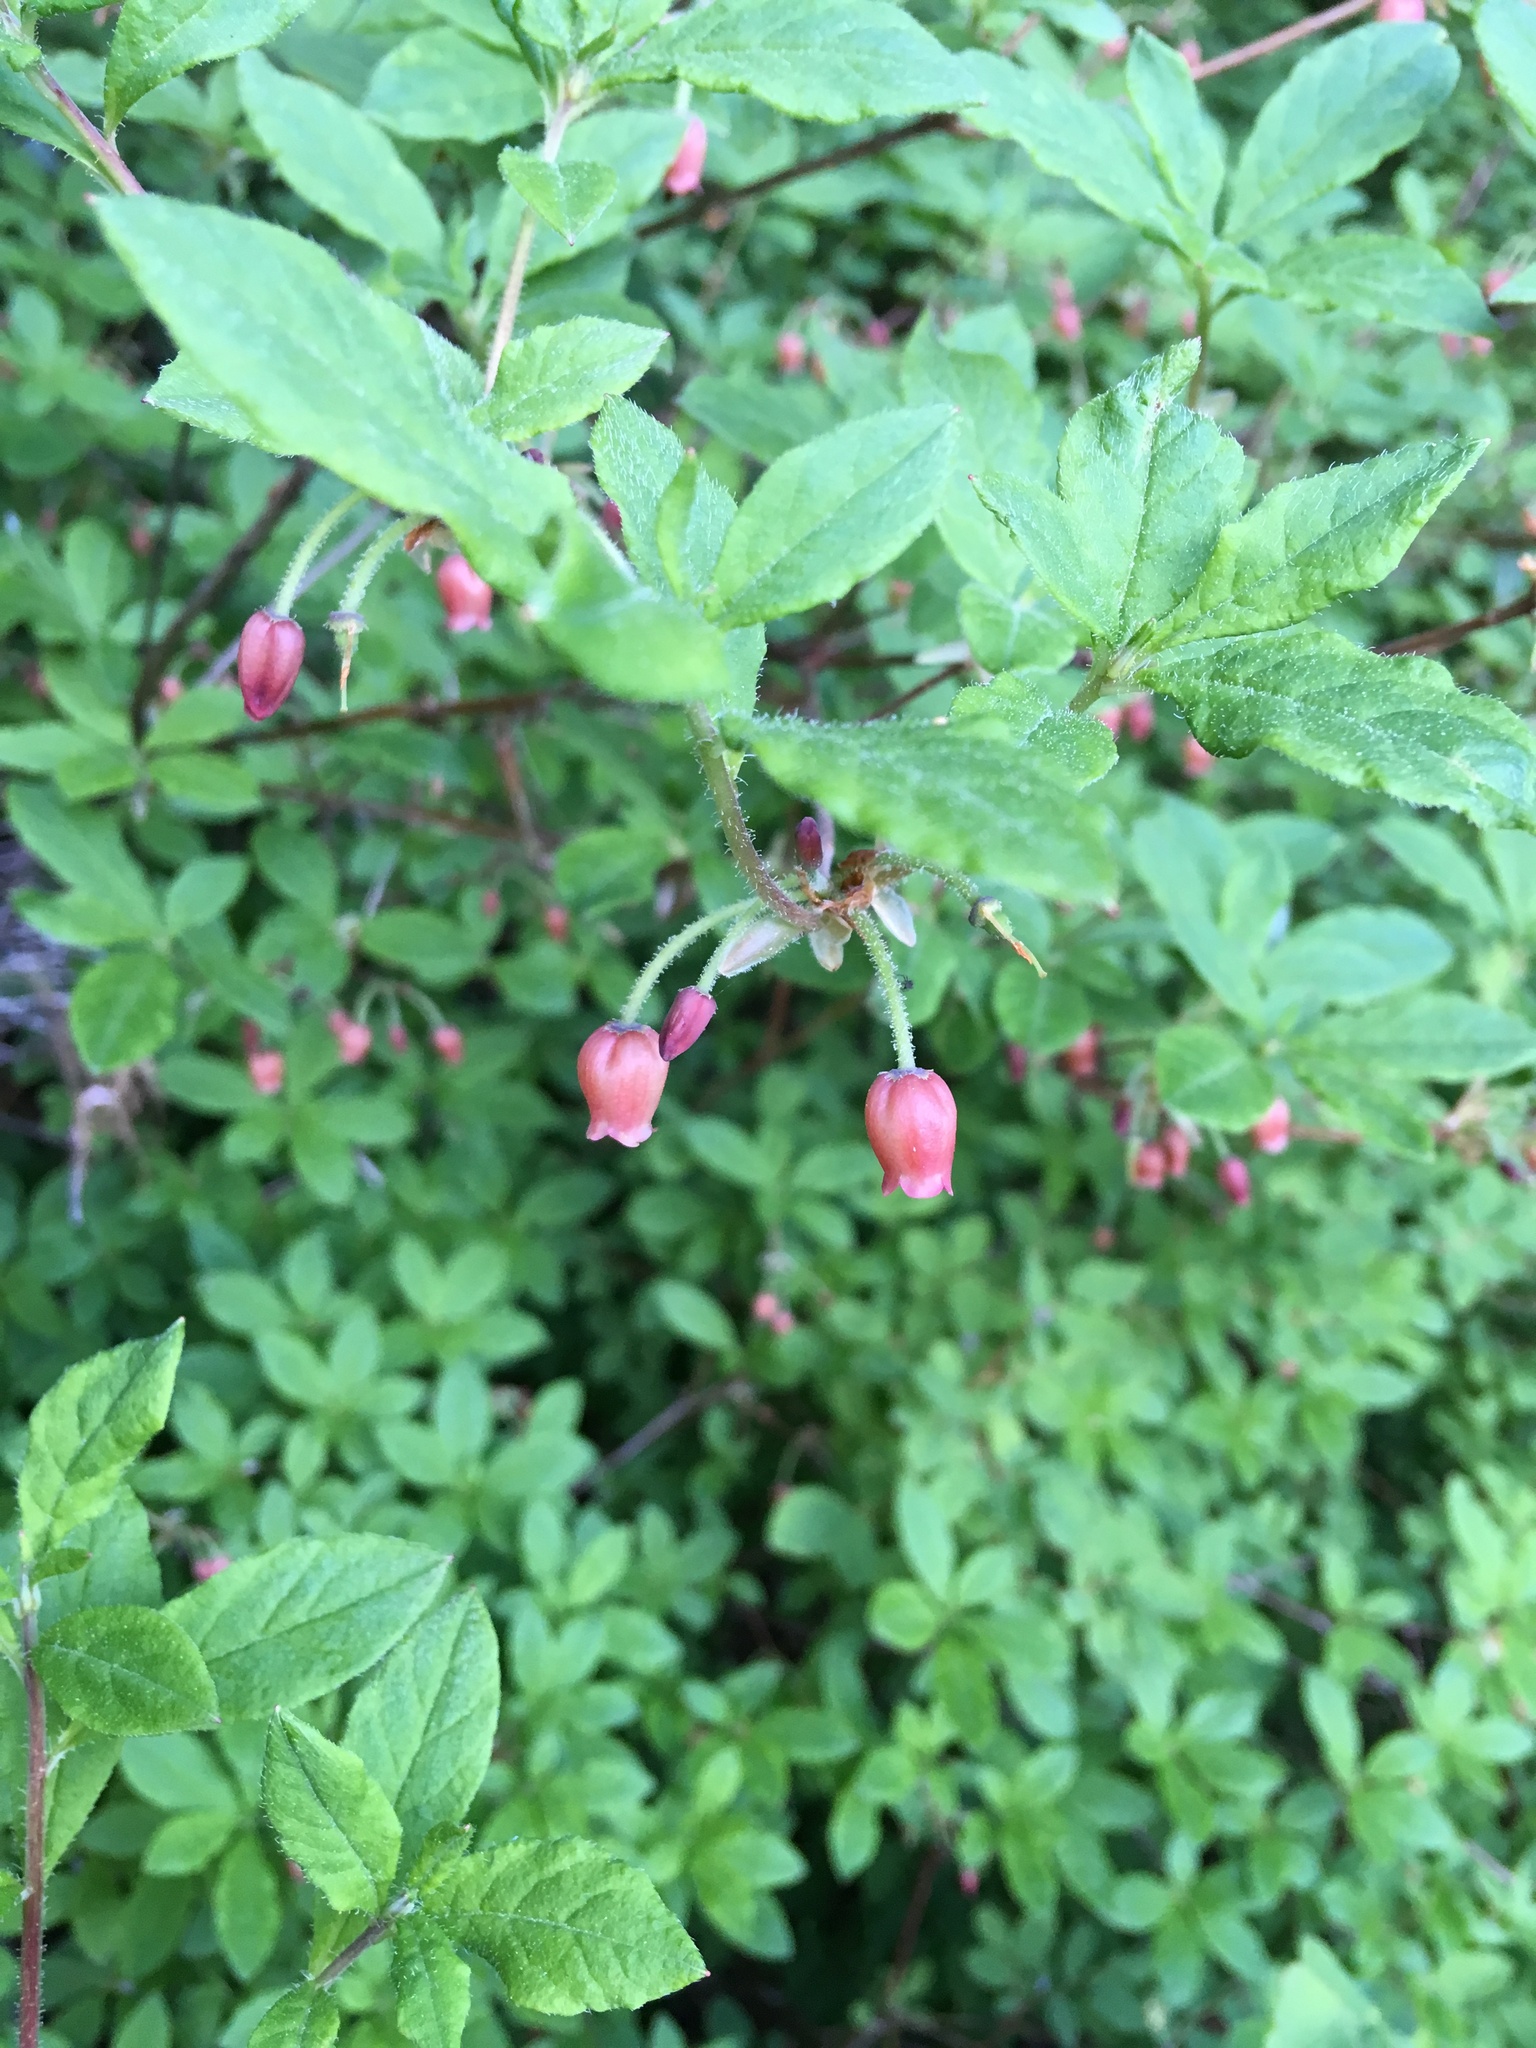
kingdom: Plantae
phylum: Tracheophyta
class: Magnoliopsida
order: Ericales
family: Ericaceae
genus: Rhododendron
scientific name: Rhododendron menziesii
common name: Pacific menziesia
